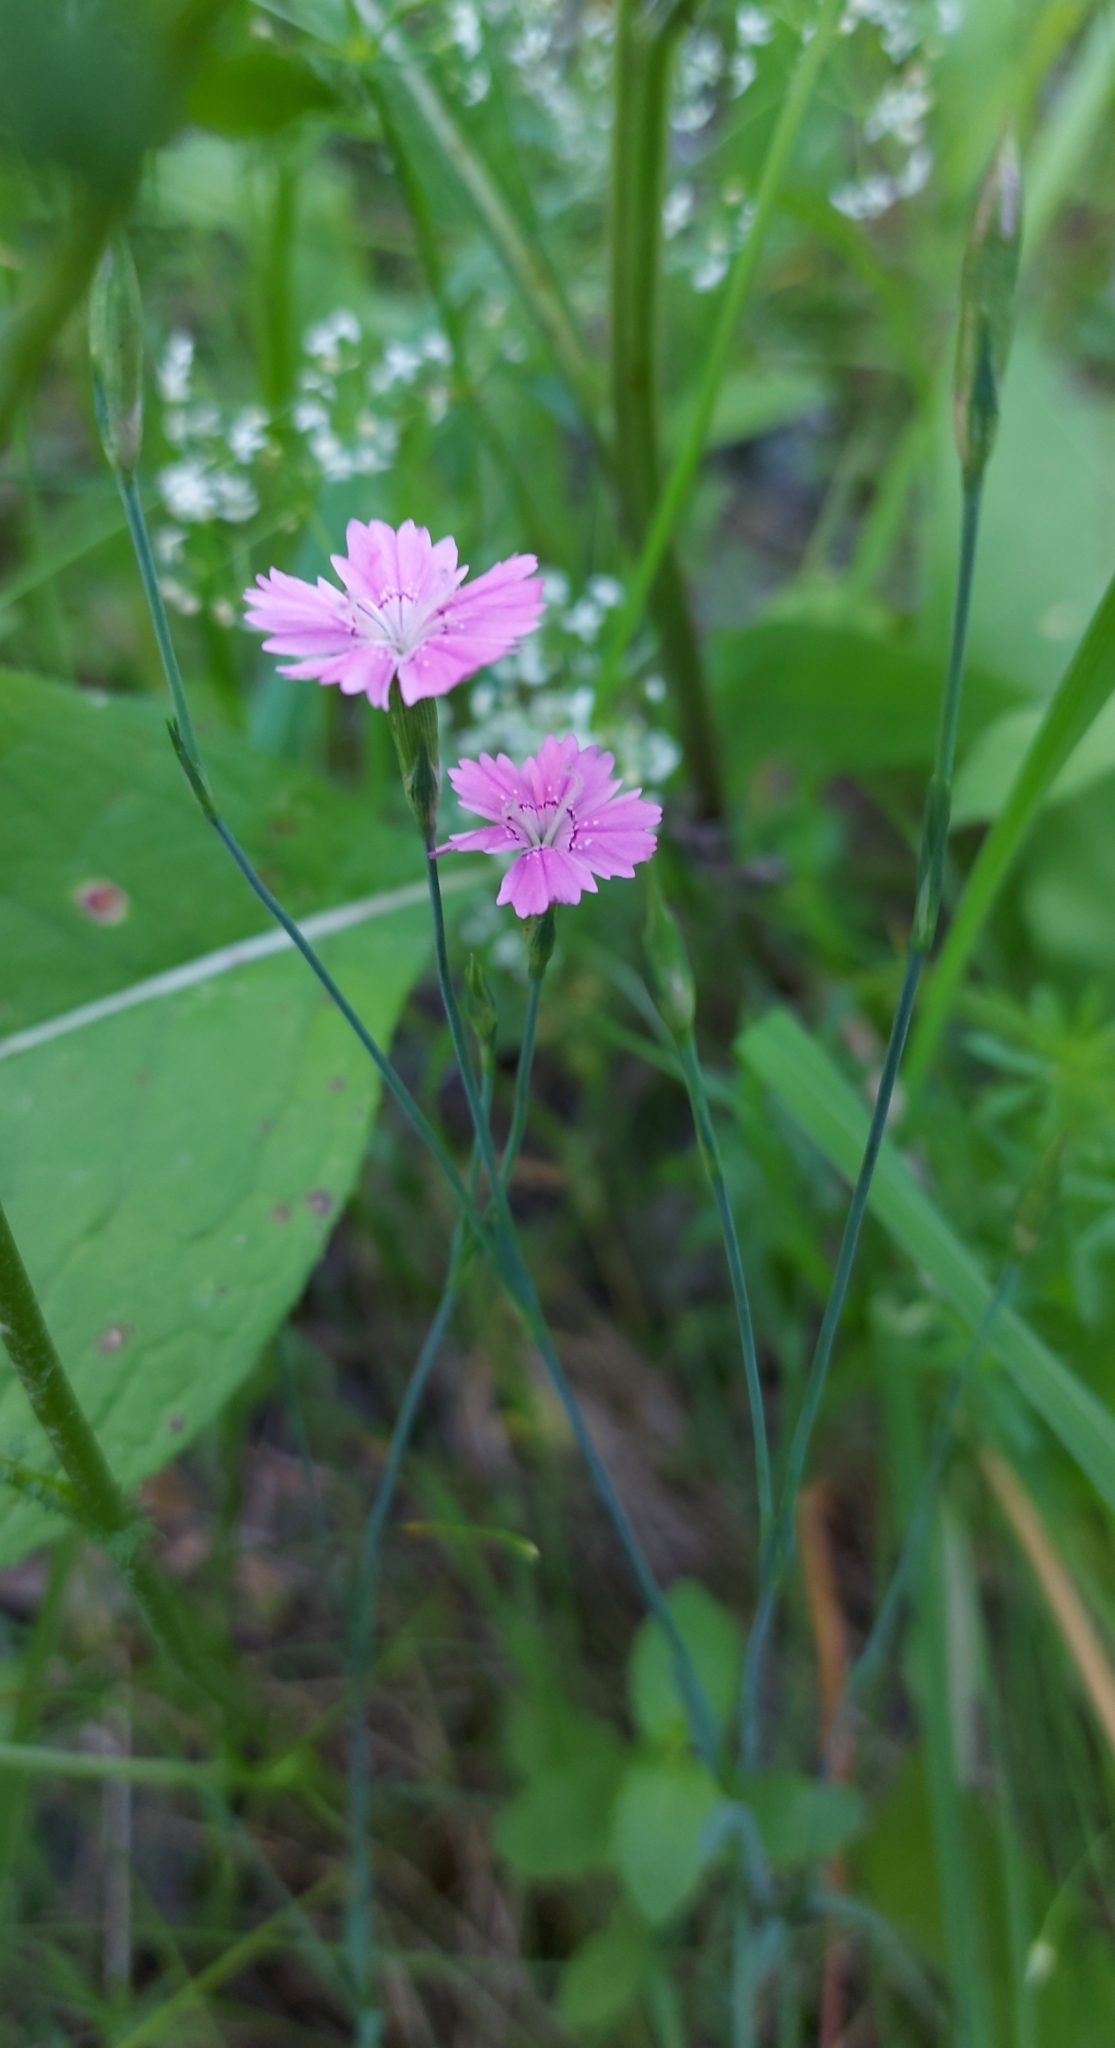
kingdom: Plantae
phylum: Tracheophyta
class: Magnoliopsida
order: Caryophyllales
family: Caryophyllaceae
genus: Dianthus
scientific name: Dianthus deltoides
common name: Maiden pink
